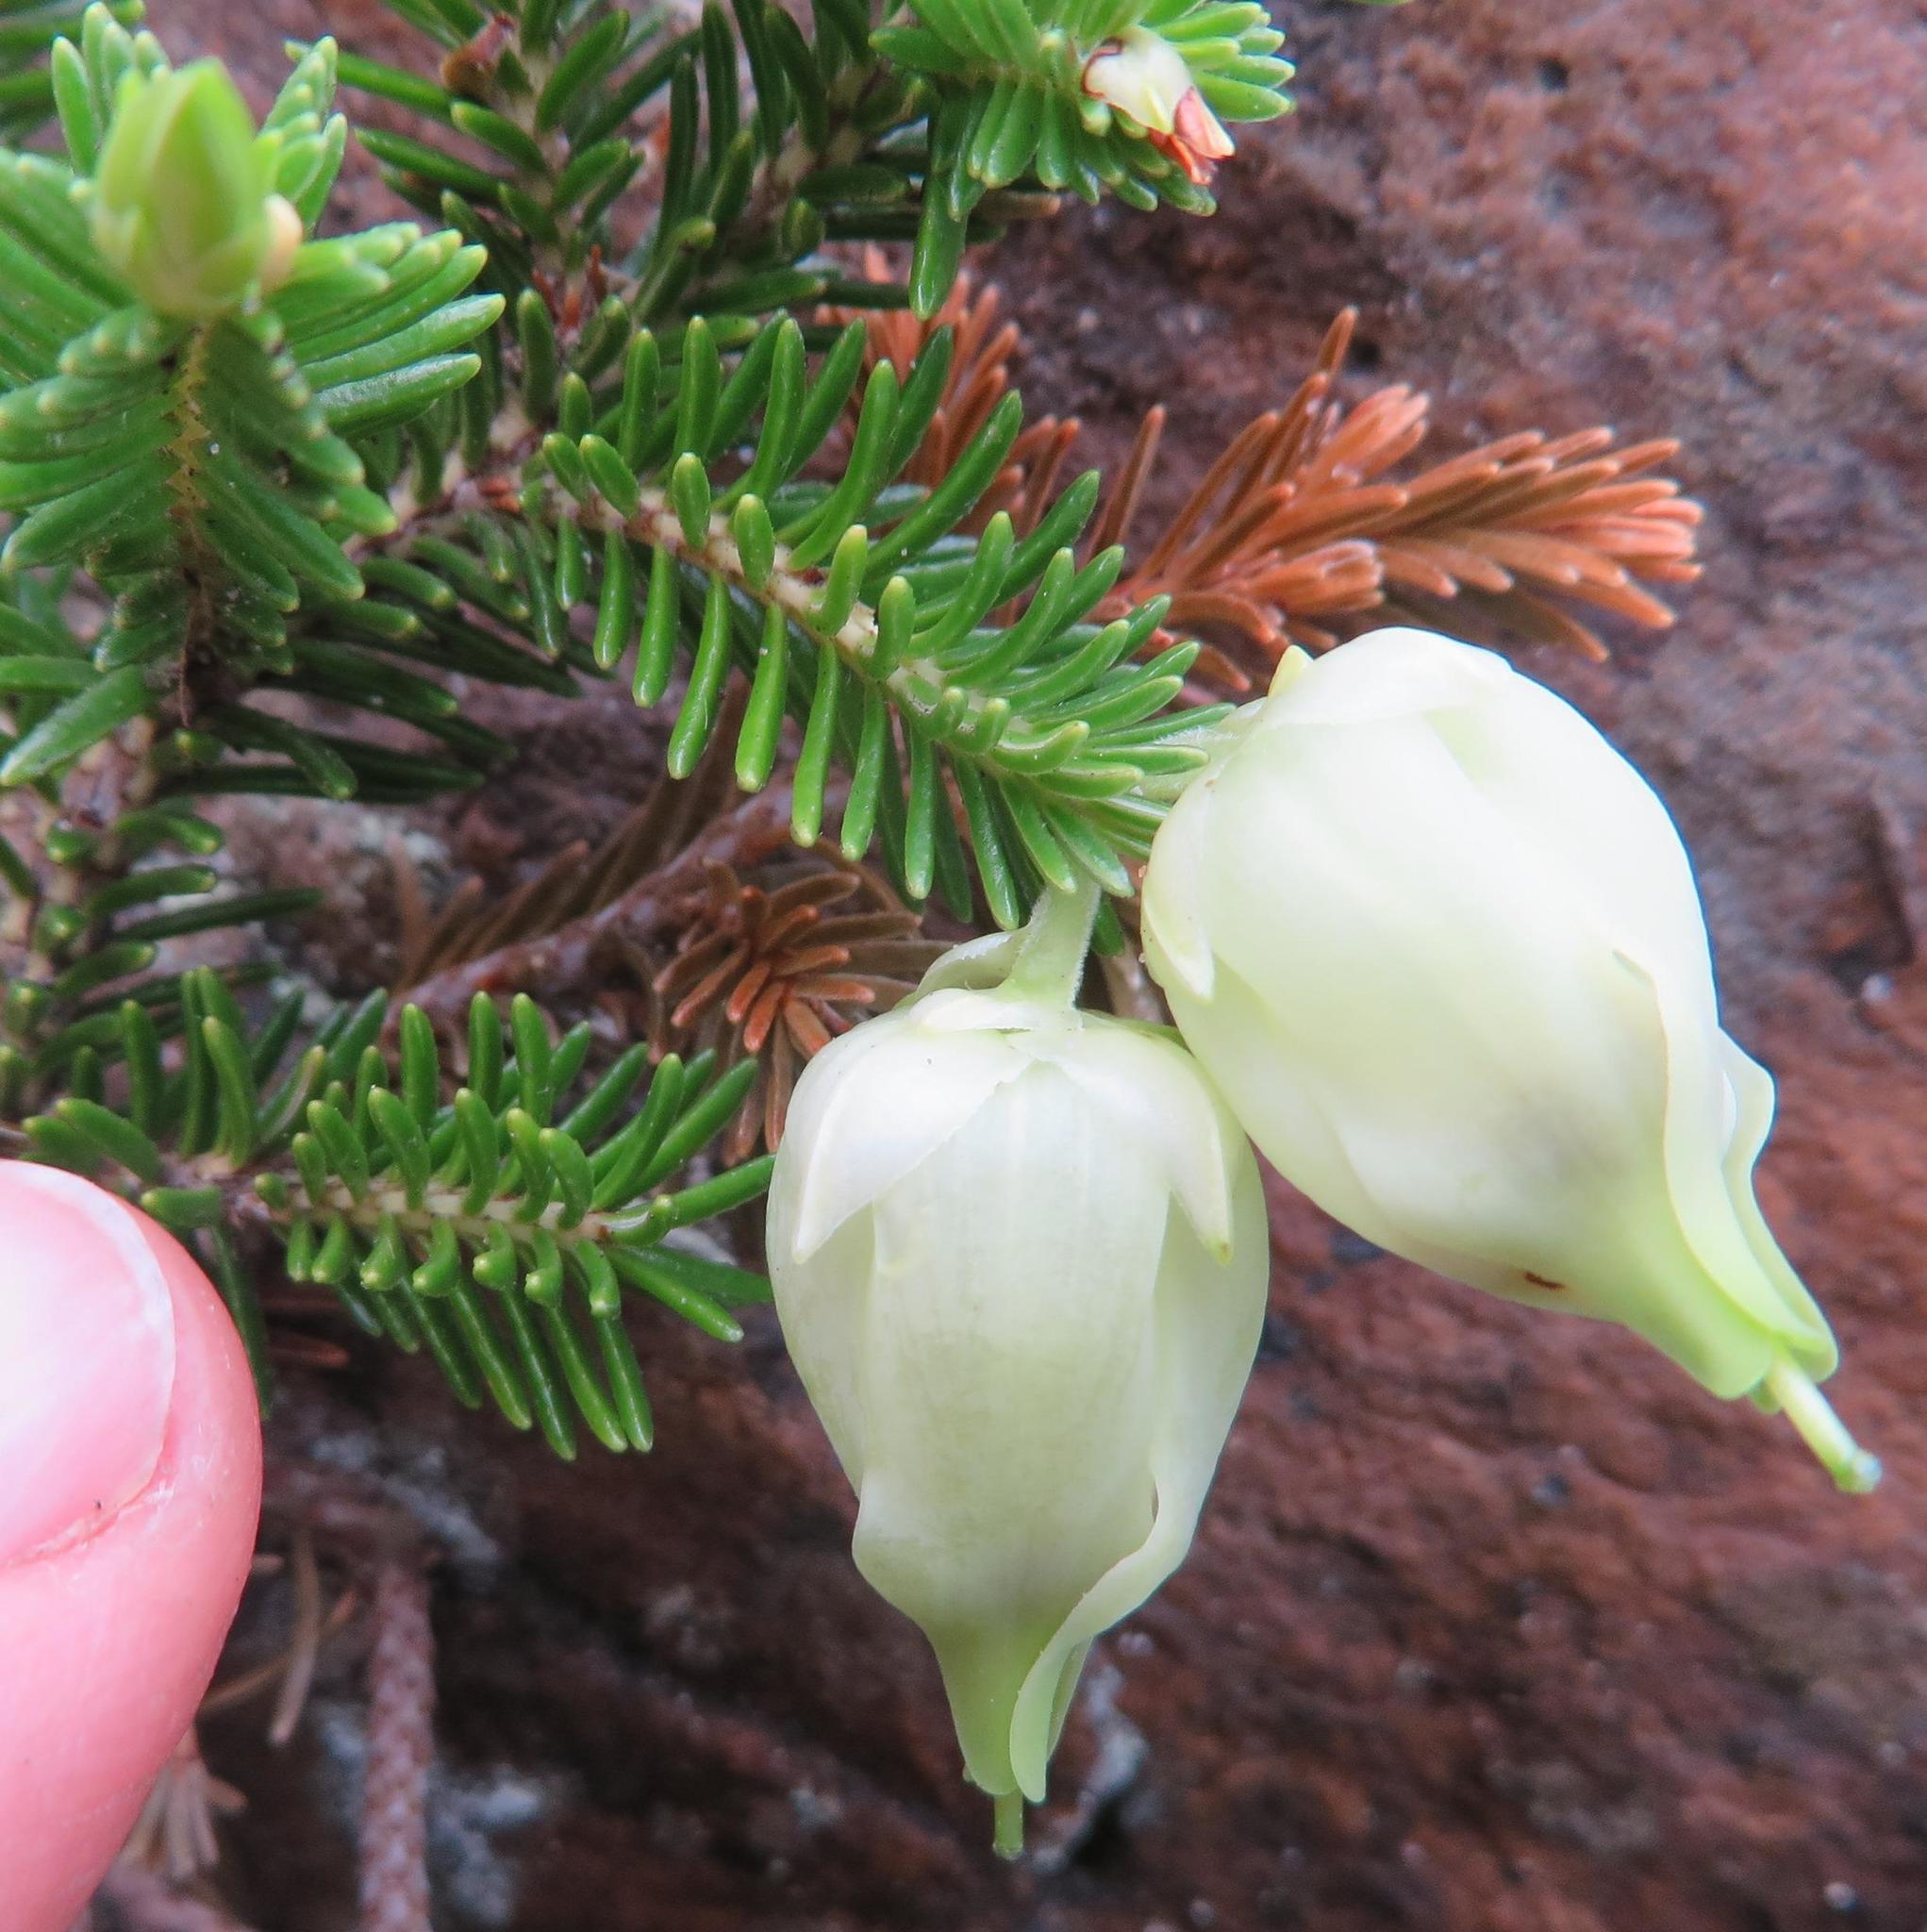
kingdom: Plantae
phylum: Tracheophyta
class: Magnoliopsida
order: Ericales
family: Ericaceae
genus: Erica
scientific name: Erica halicacaba
